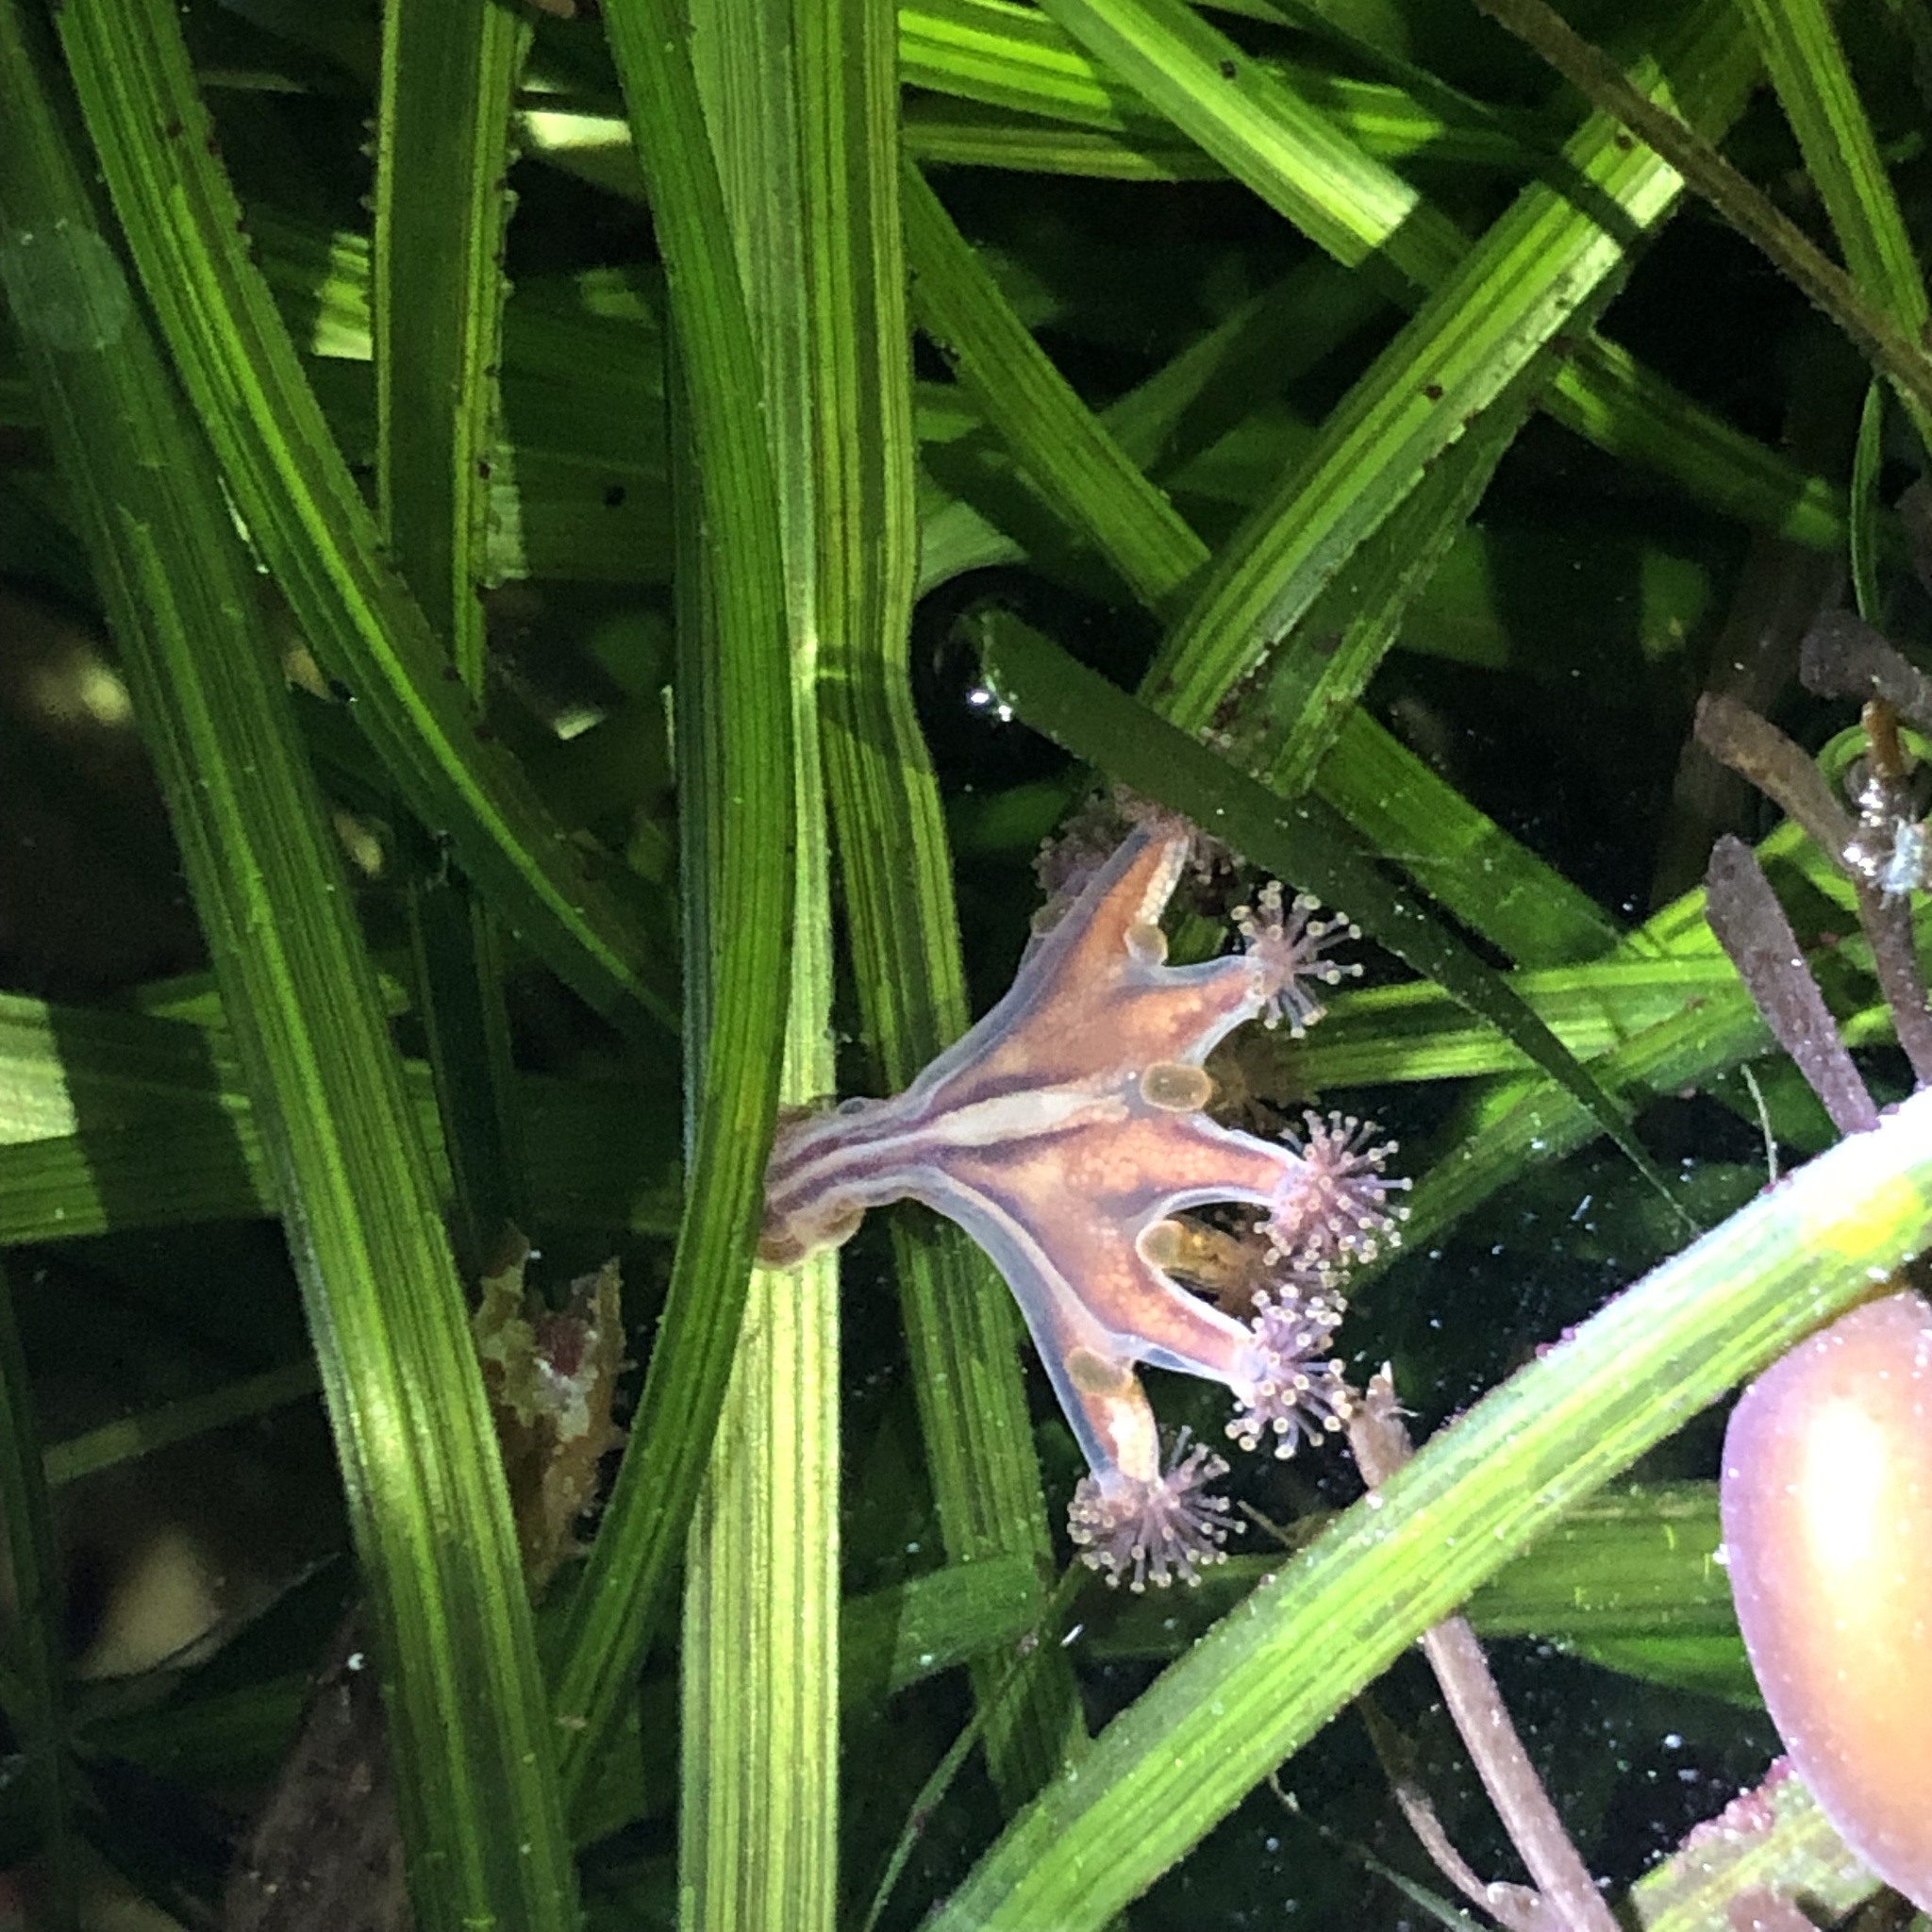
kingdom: Animalia
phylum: Cnidaria
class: Staurozoa
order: Stauromedusae
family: Haliclystidae
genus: Haliclystus
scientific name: Haliclystus sanjuanensis
